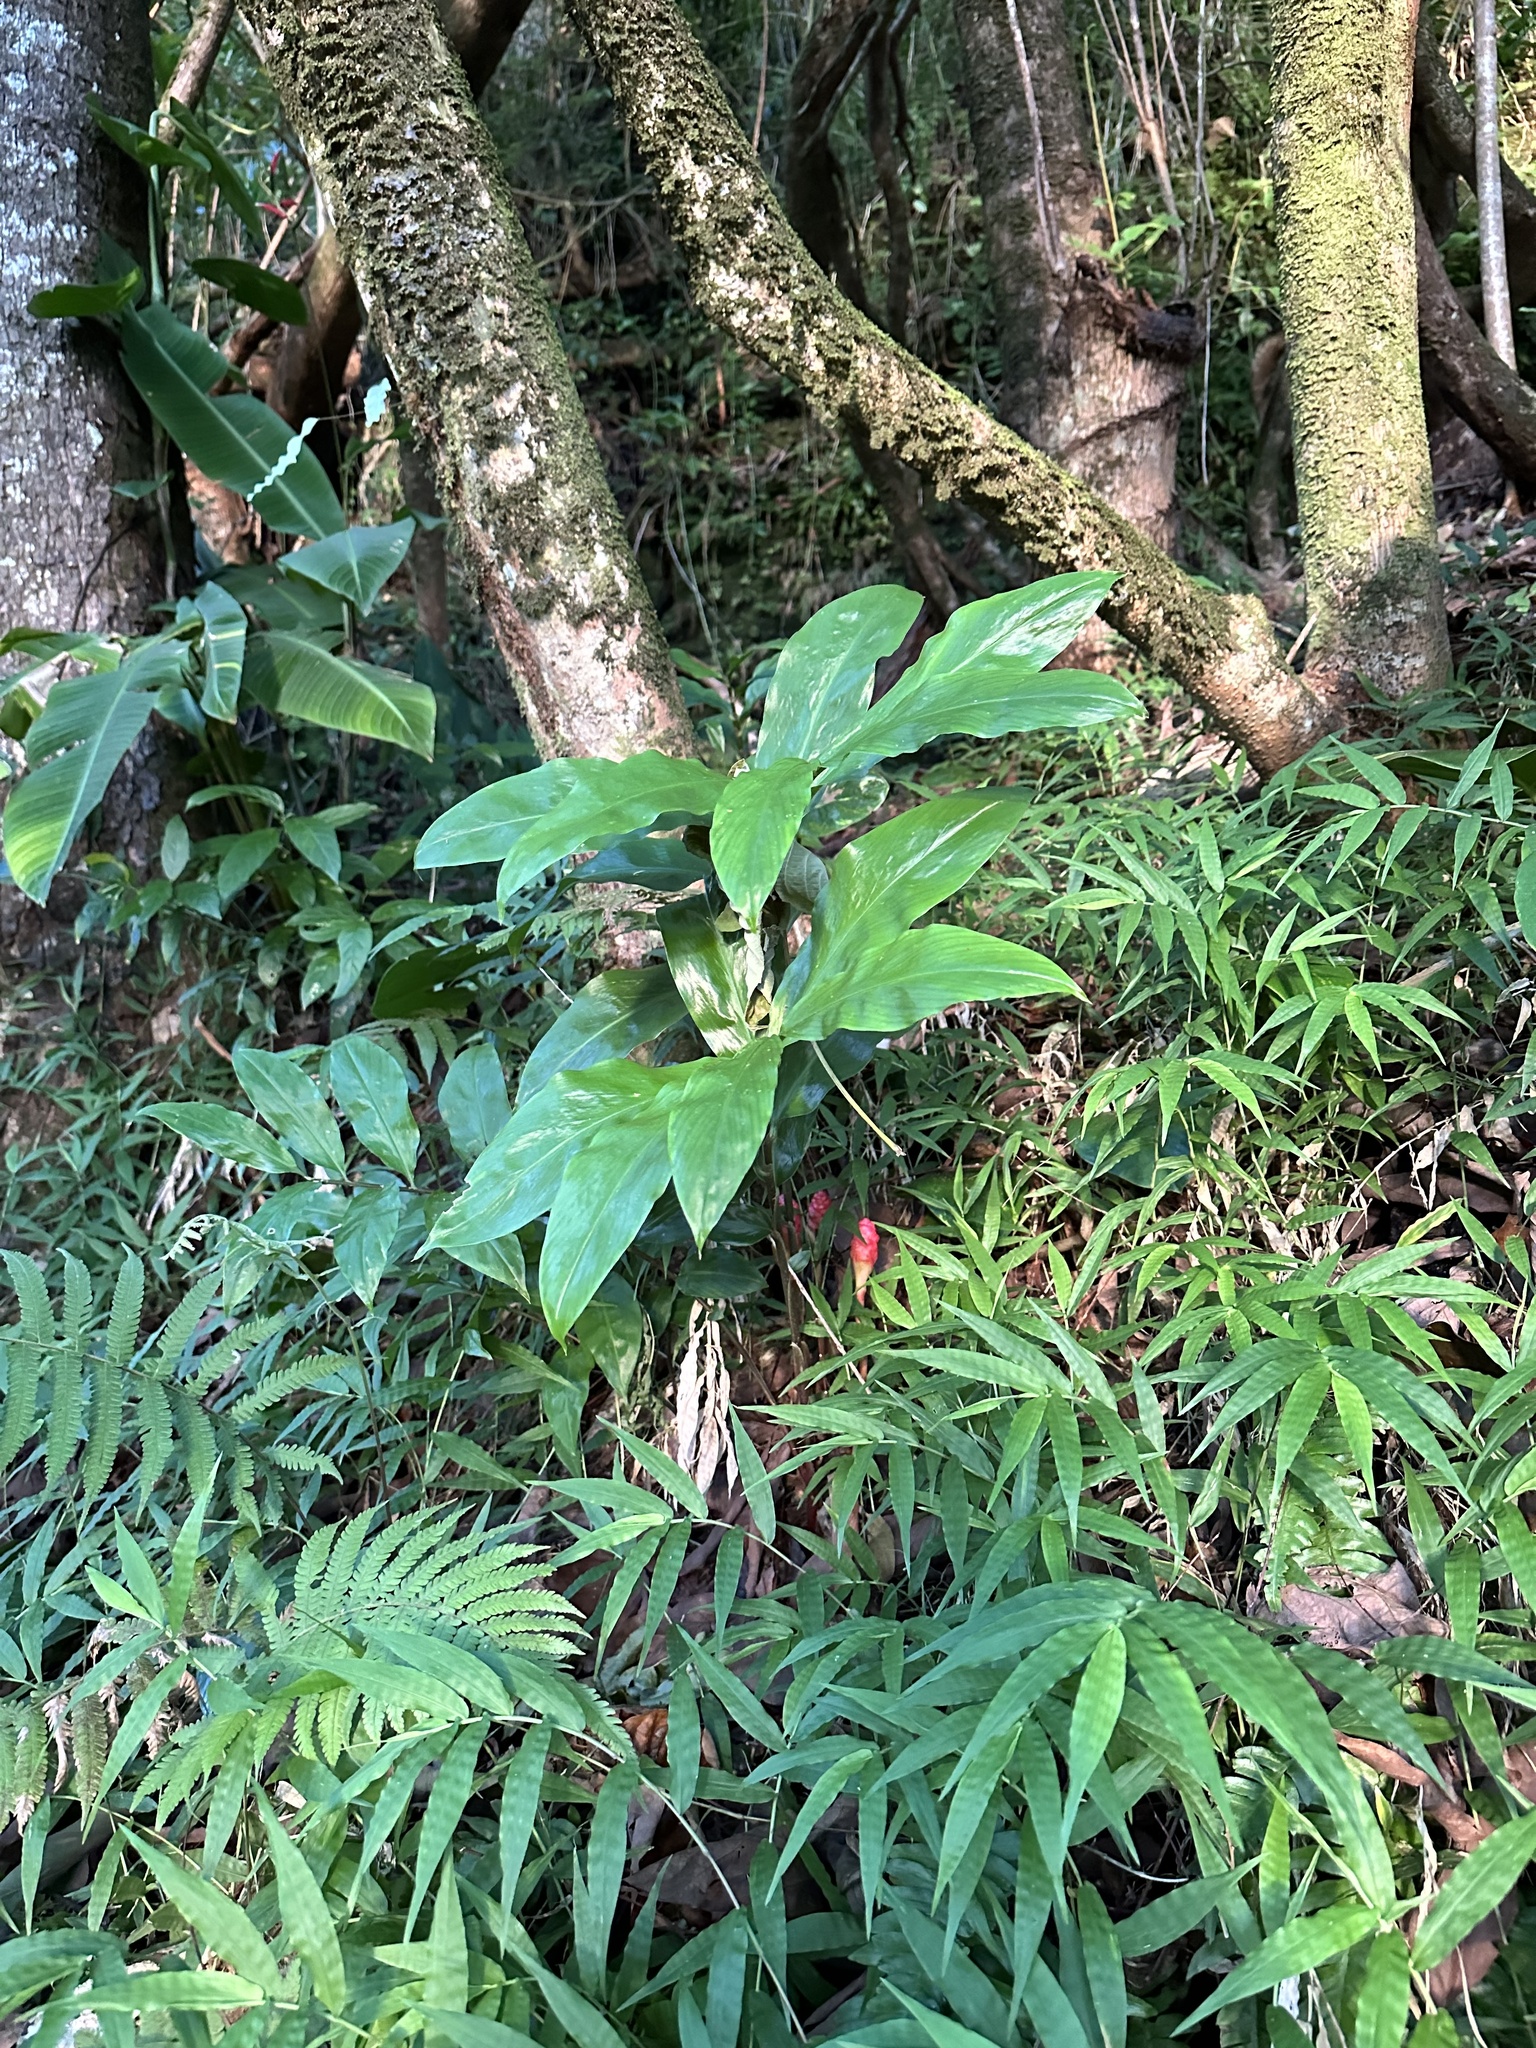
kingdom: Plantae
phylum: Tracheophyta
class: Liliopsida
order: Zingiberales
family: Zingiberaceae
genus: Zingiber
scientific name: Zingiber zerumbet
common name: Bitter ginger
